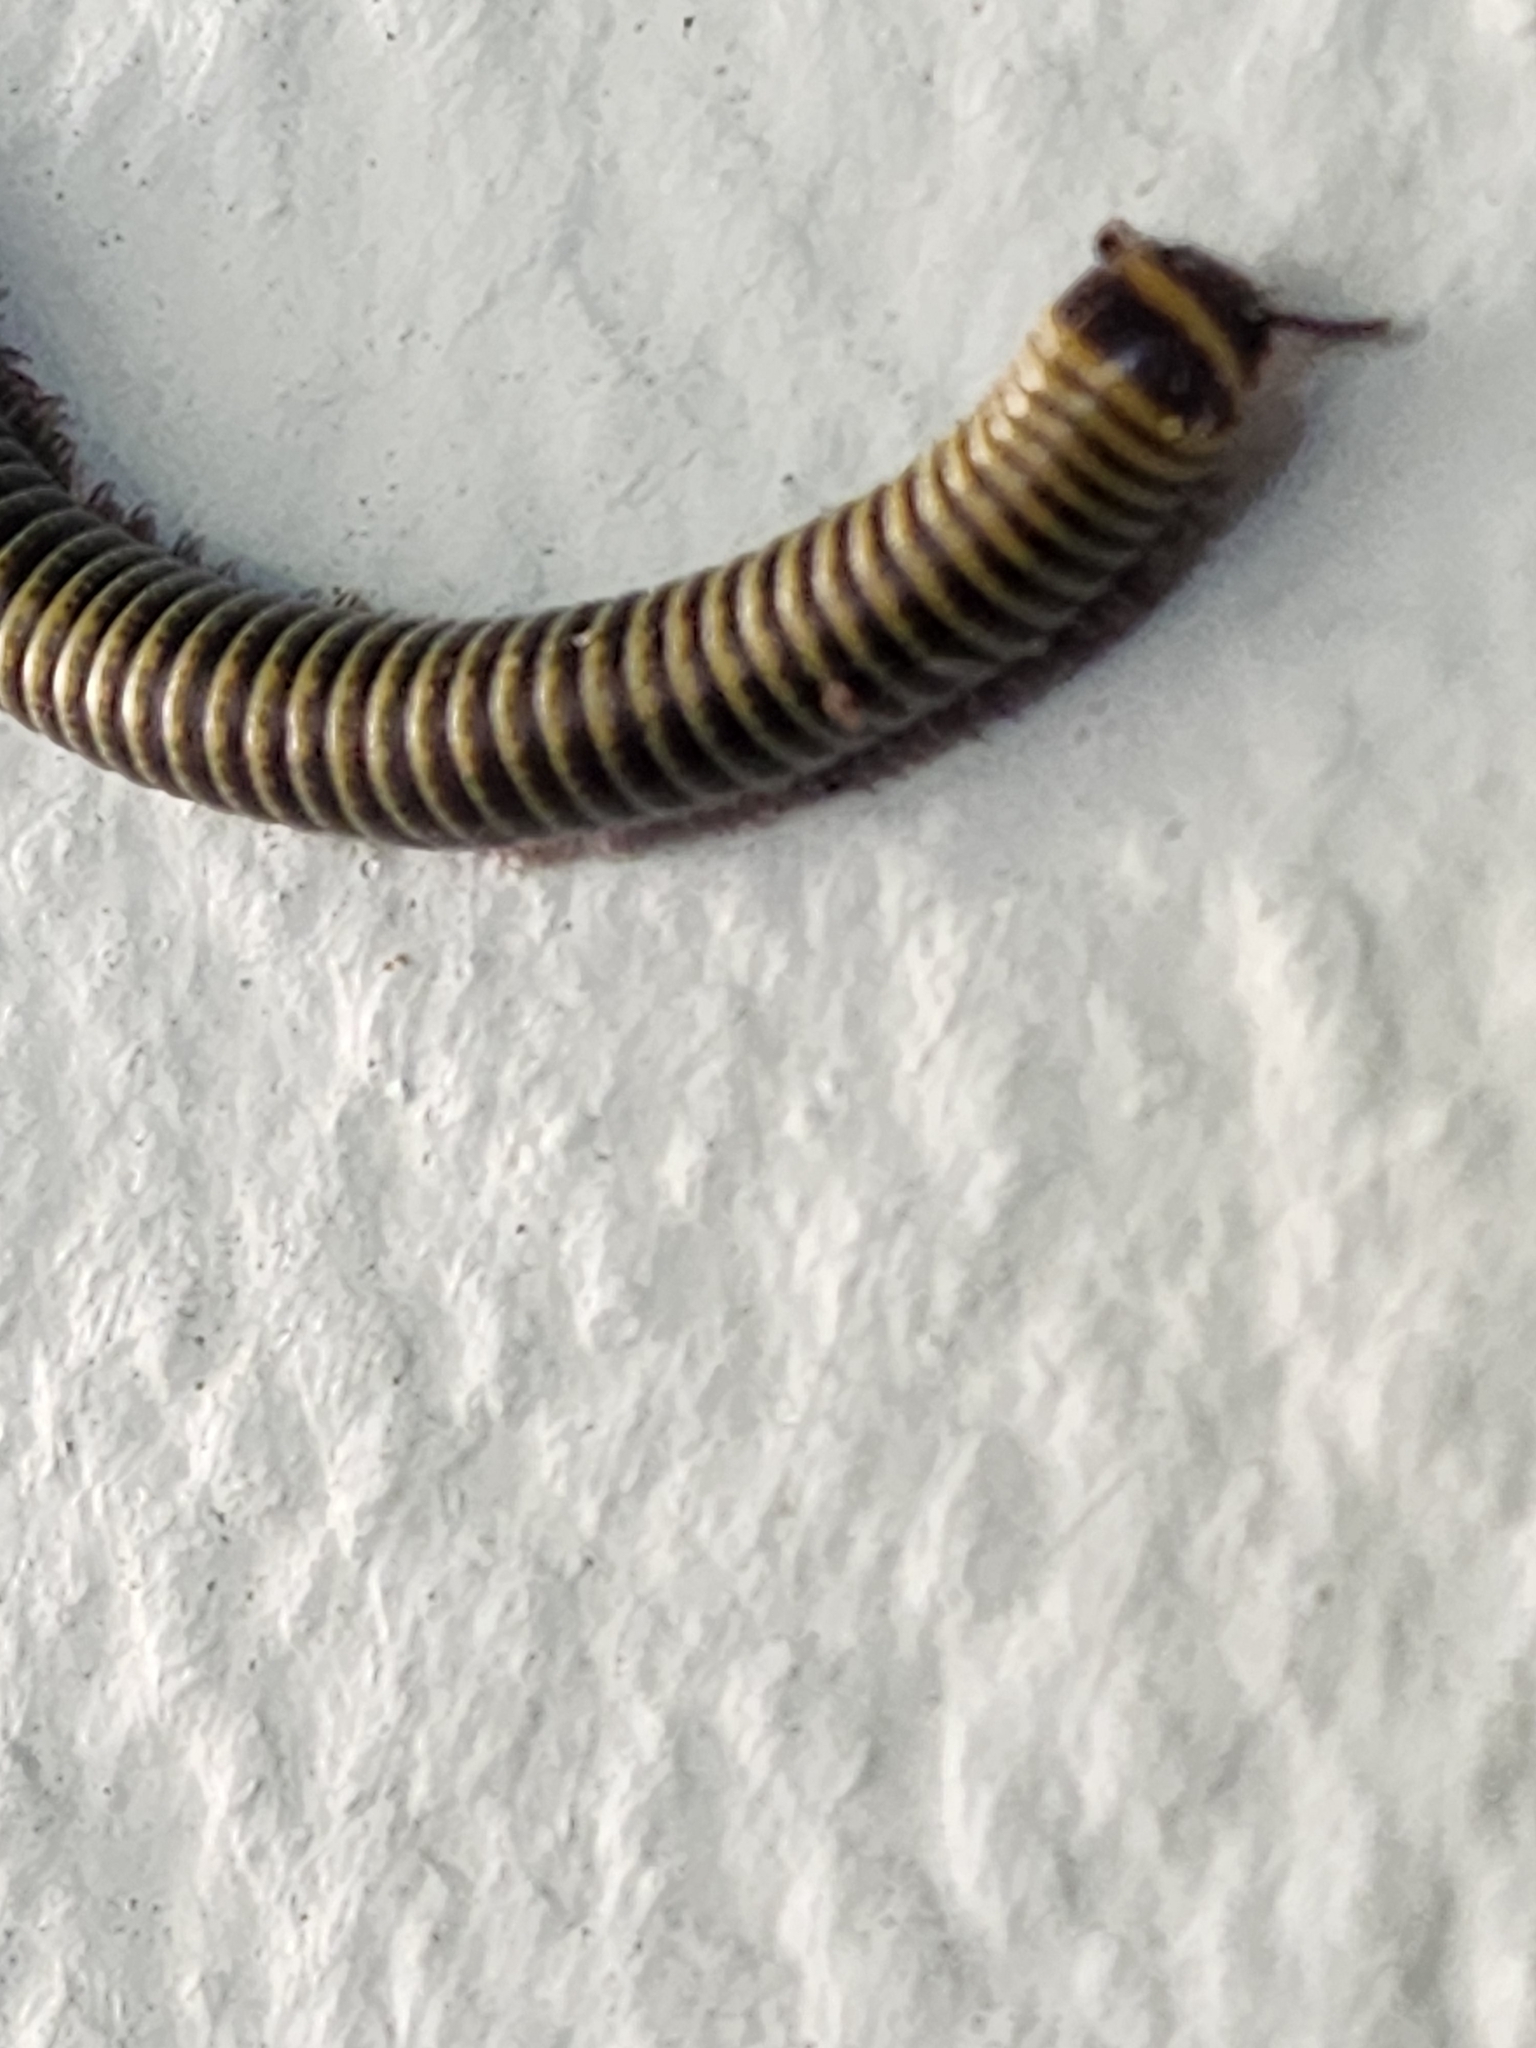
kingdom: Animalia
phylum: Arthropoda
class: Diplopoda
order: Spirobolida
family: Rhinocricidae
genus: Anadenobolus
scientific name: Anadenobolus monilicornis
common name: Caribbean millipede
